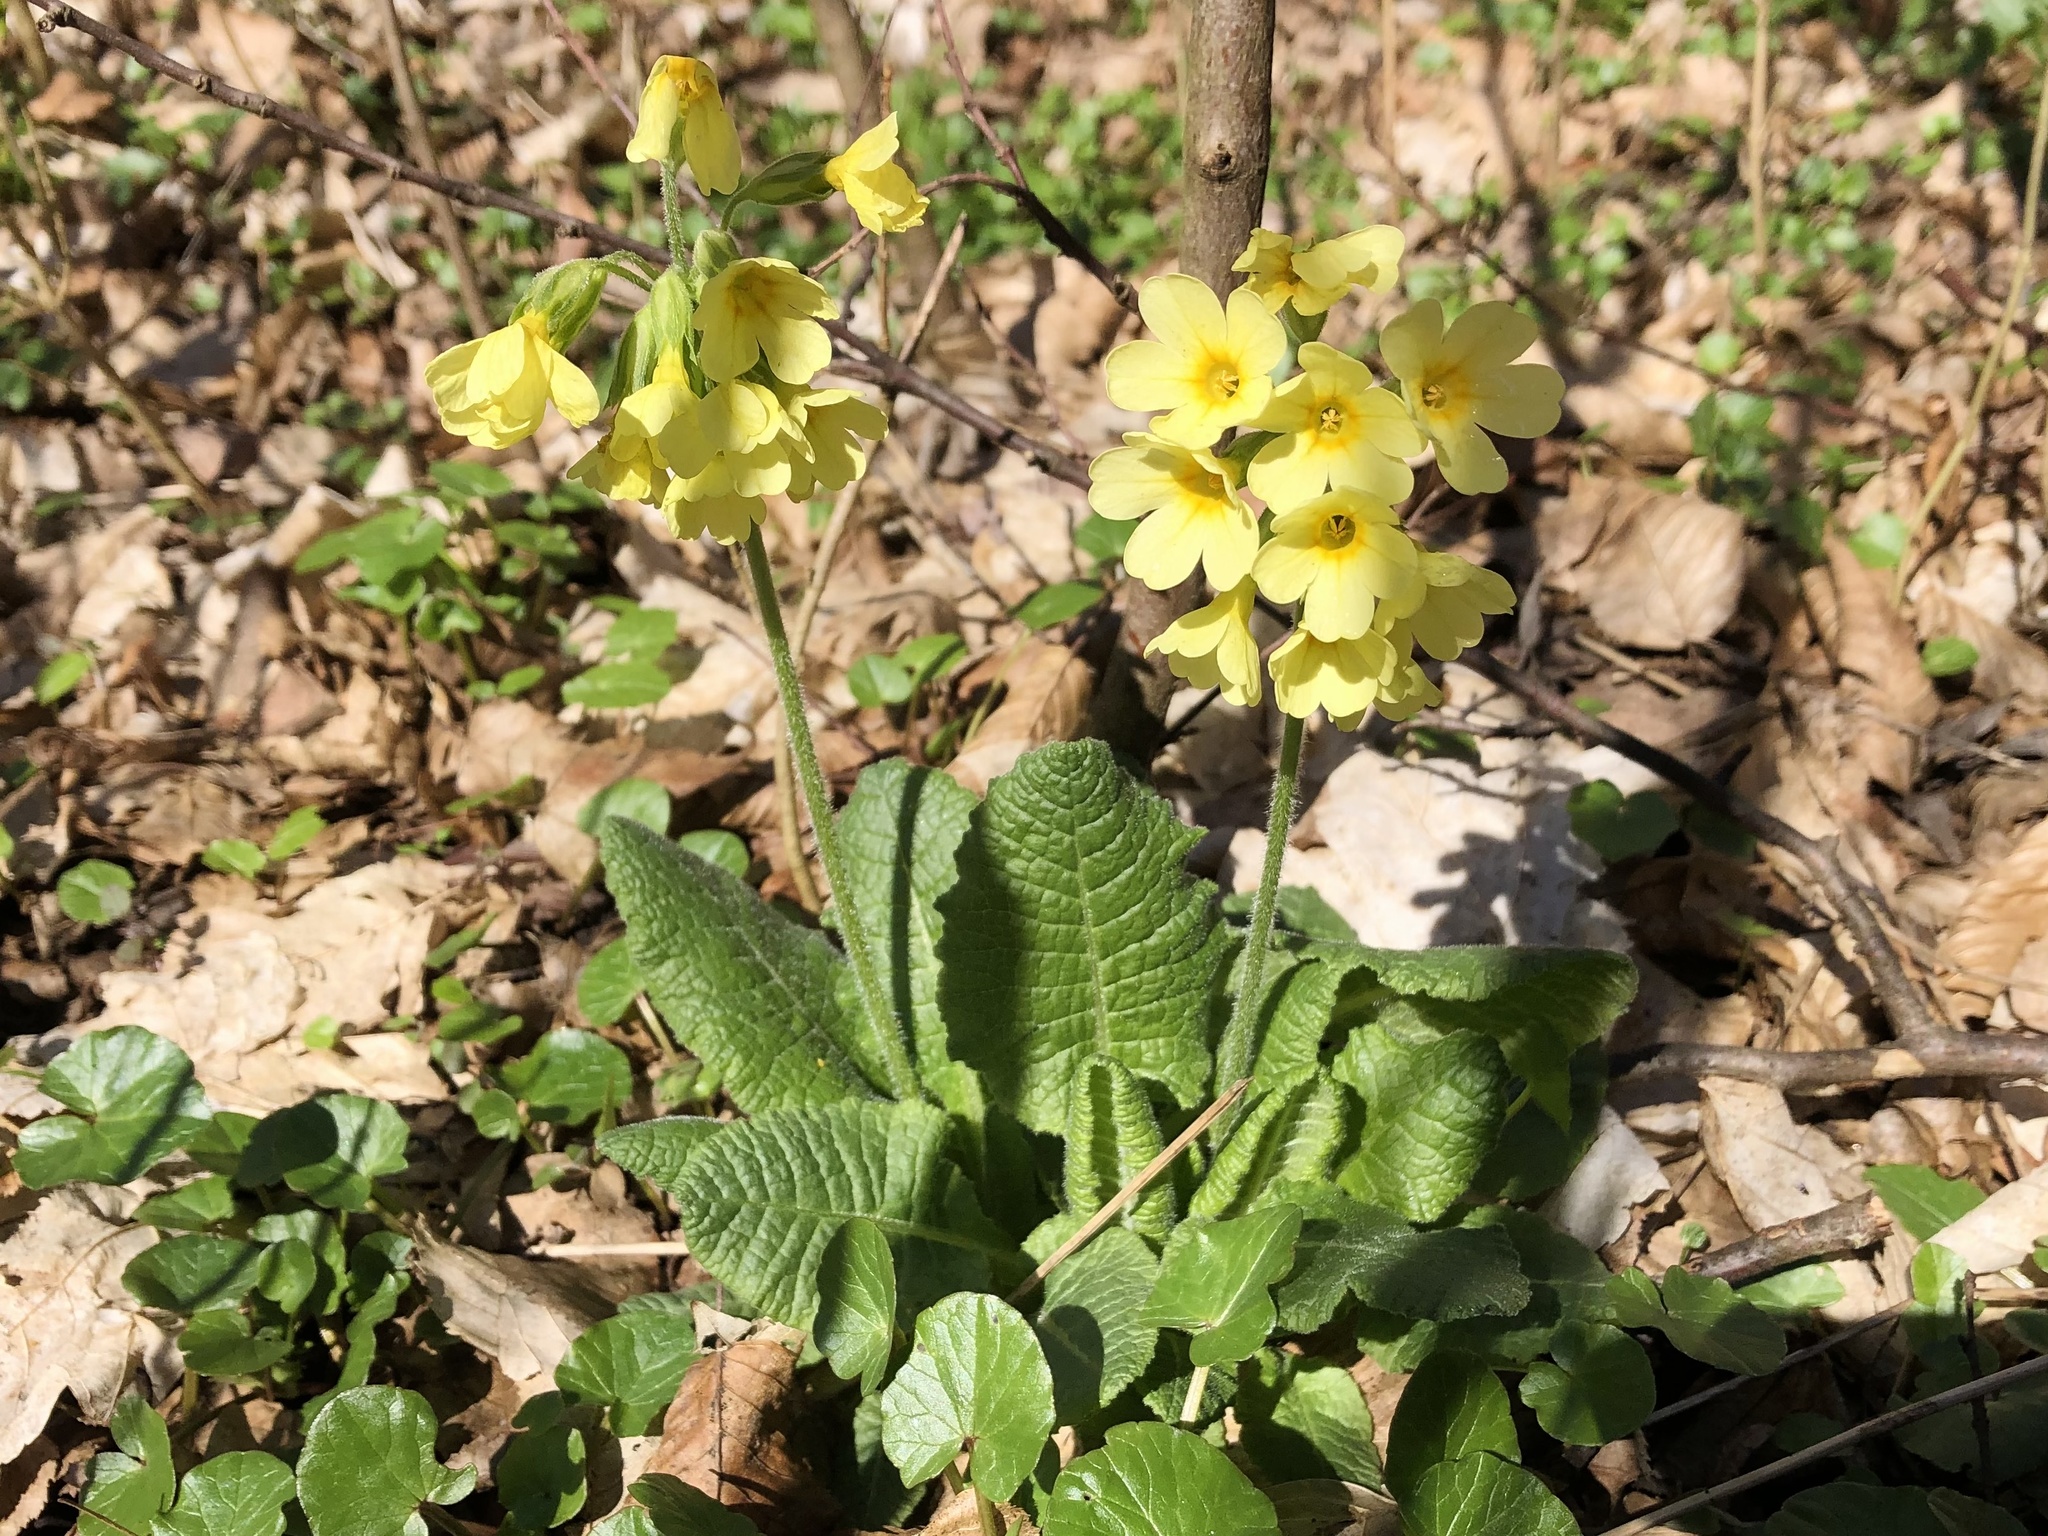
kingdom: Plantae
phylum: Tracheophyta
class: Magnoliopsida
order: Ericales
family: Primulaceae
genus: Primula
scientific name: Primula elatior
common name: Oxlip
